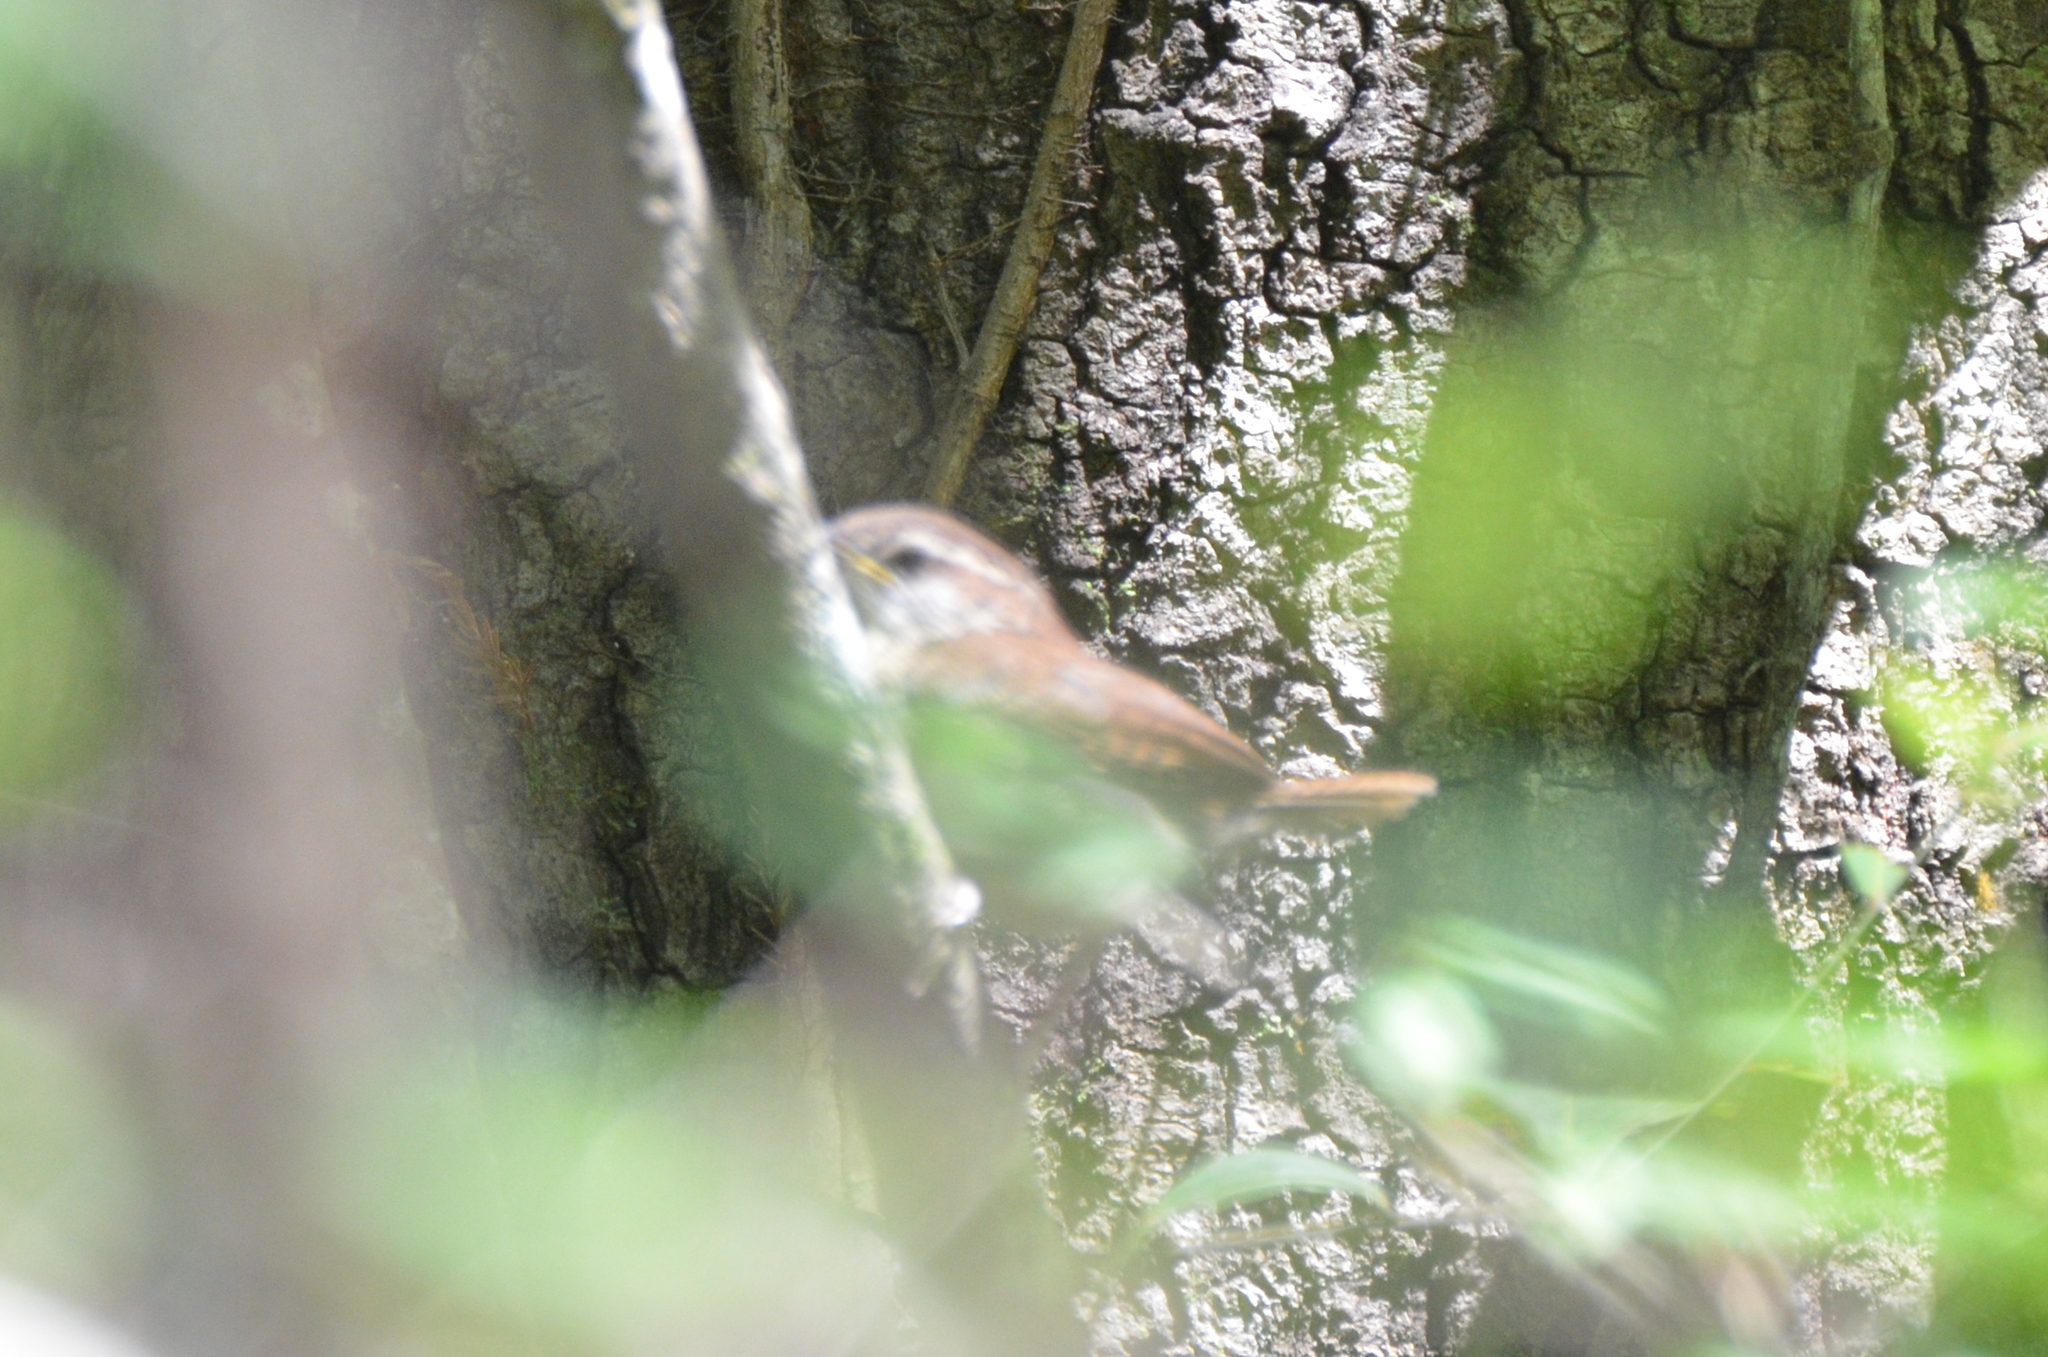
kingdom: Animalia
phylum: Chordata
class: Aves
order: Passeriformes
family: Troglodytidae
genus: Thryothorus
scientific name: Thryothorus ludovicianus
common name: Carolina wren
